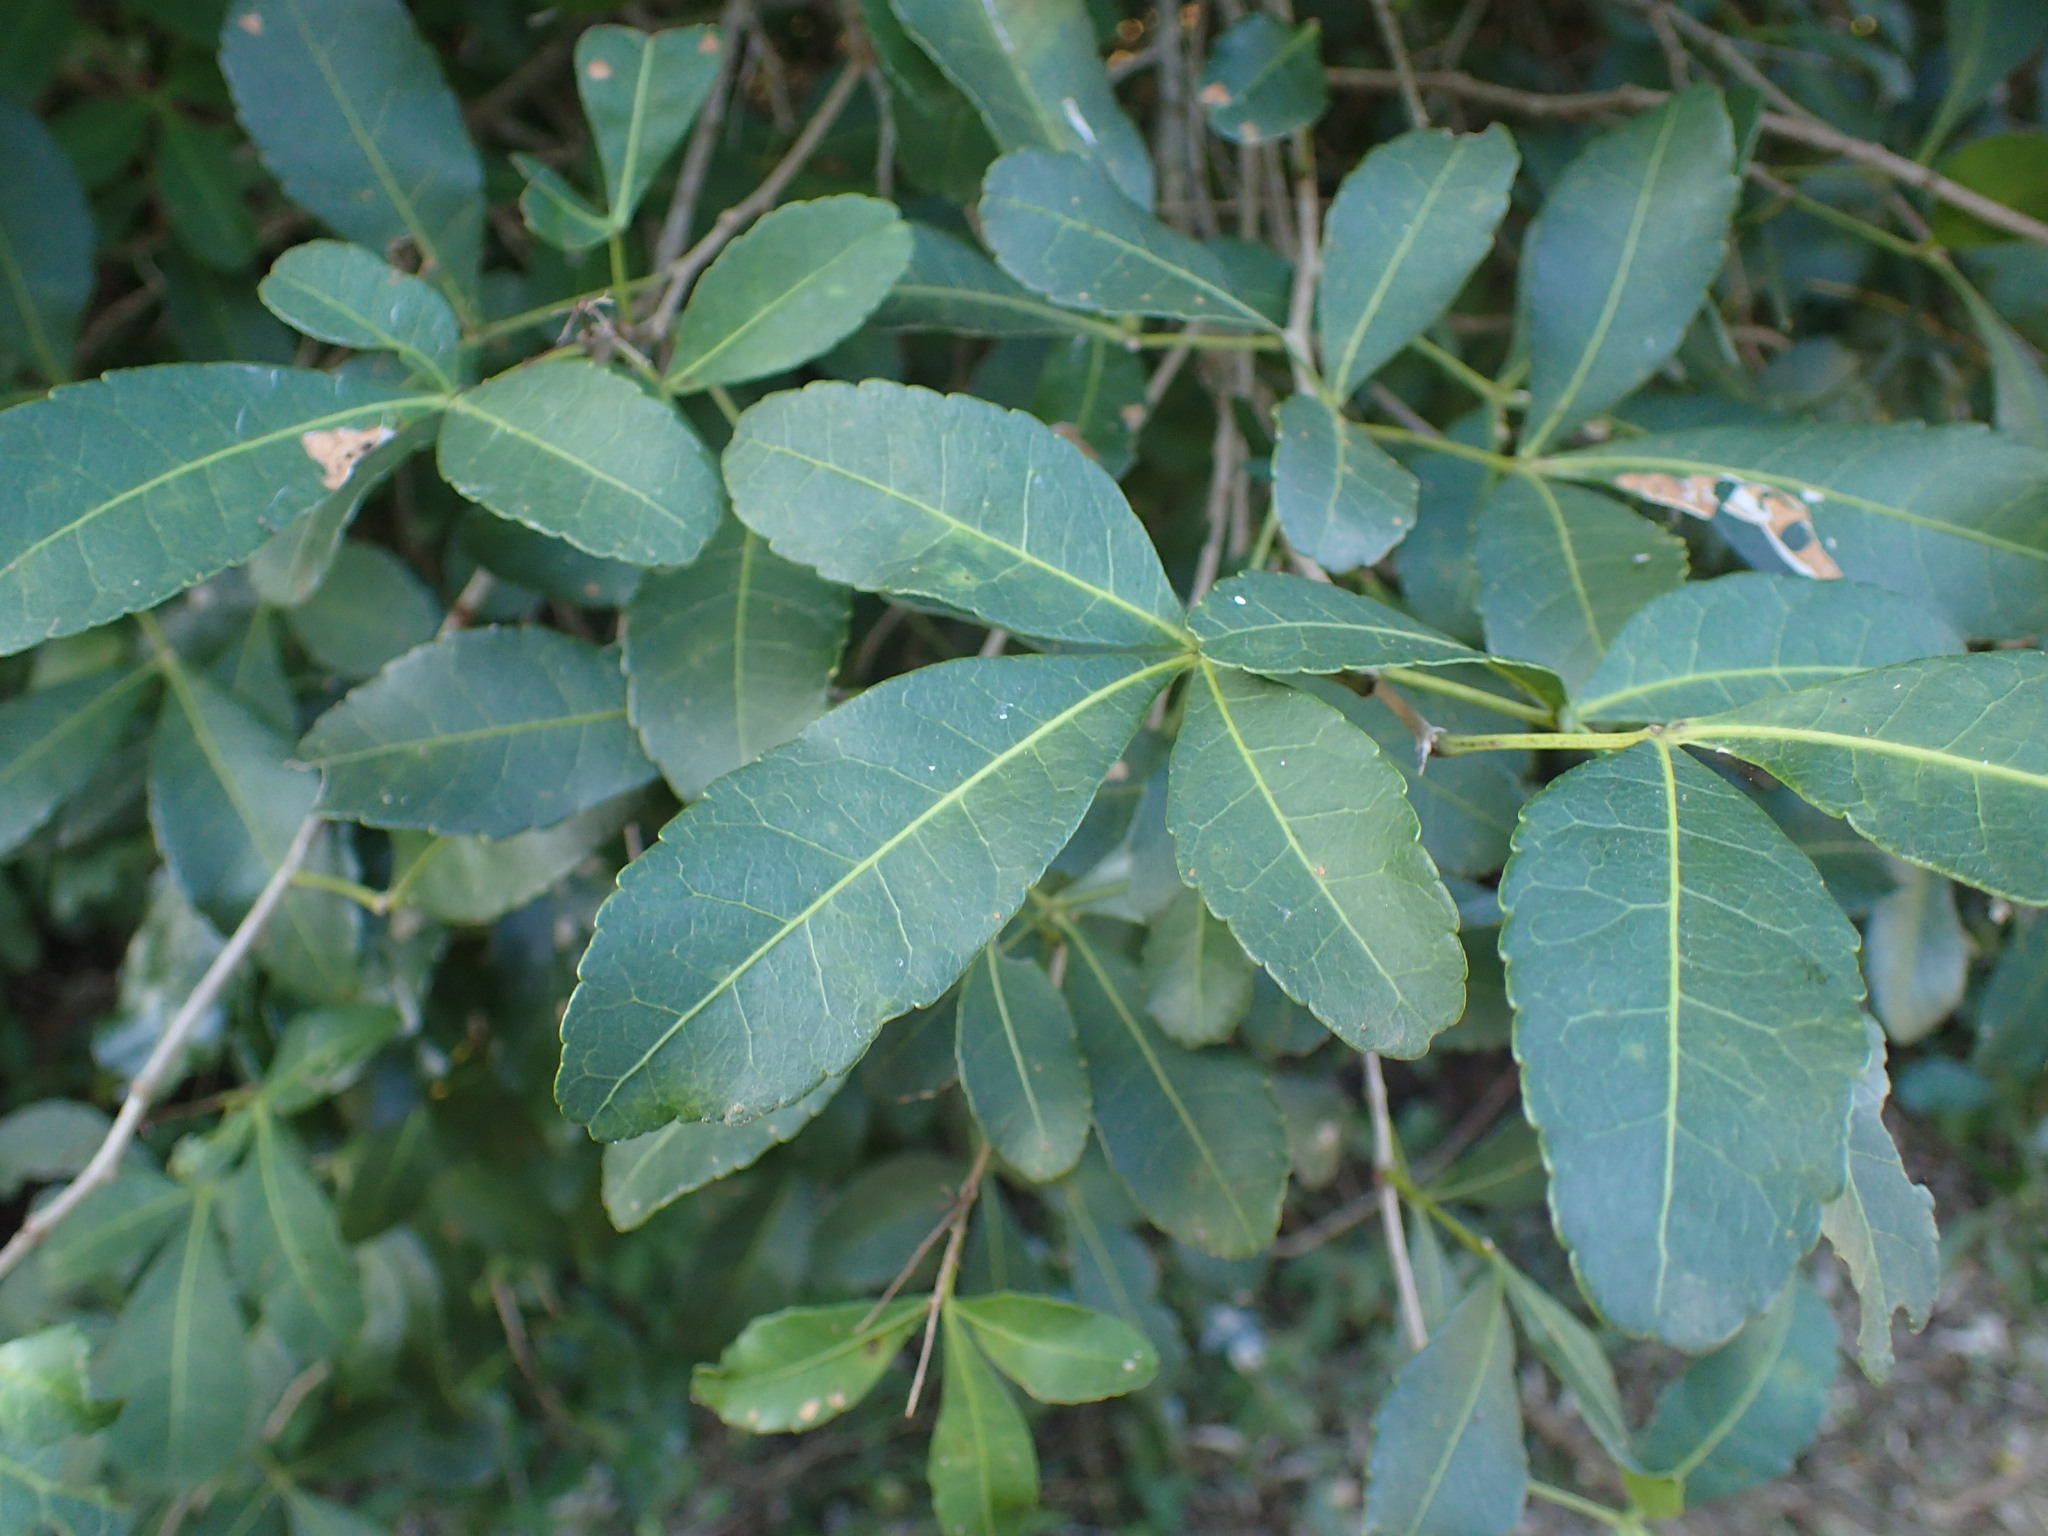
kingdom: Plantae
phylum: Tracheophyta
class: Magnoliopsida
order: Sapindales
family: Anacardiaceae
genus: Searsia
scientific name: Searsia natalensis
